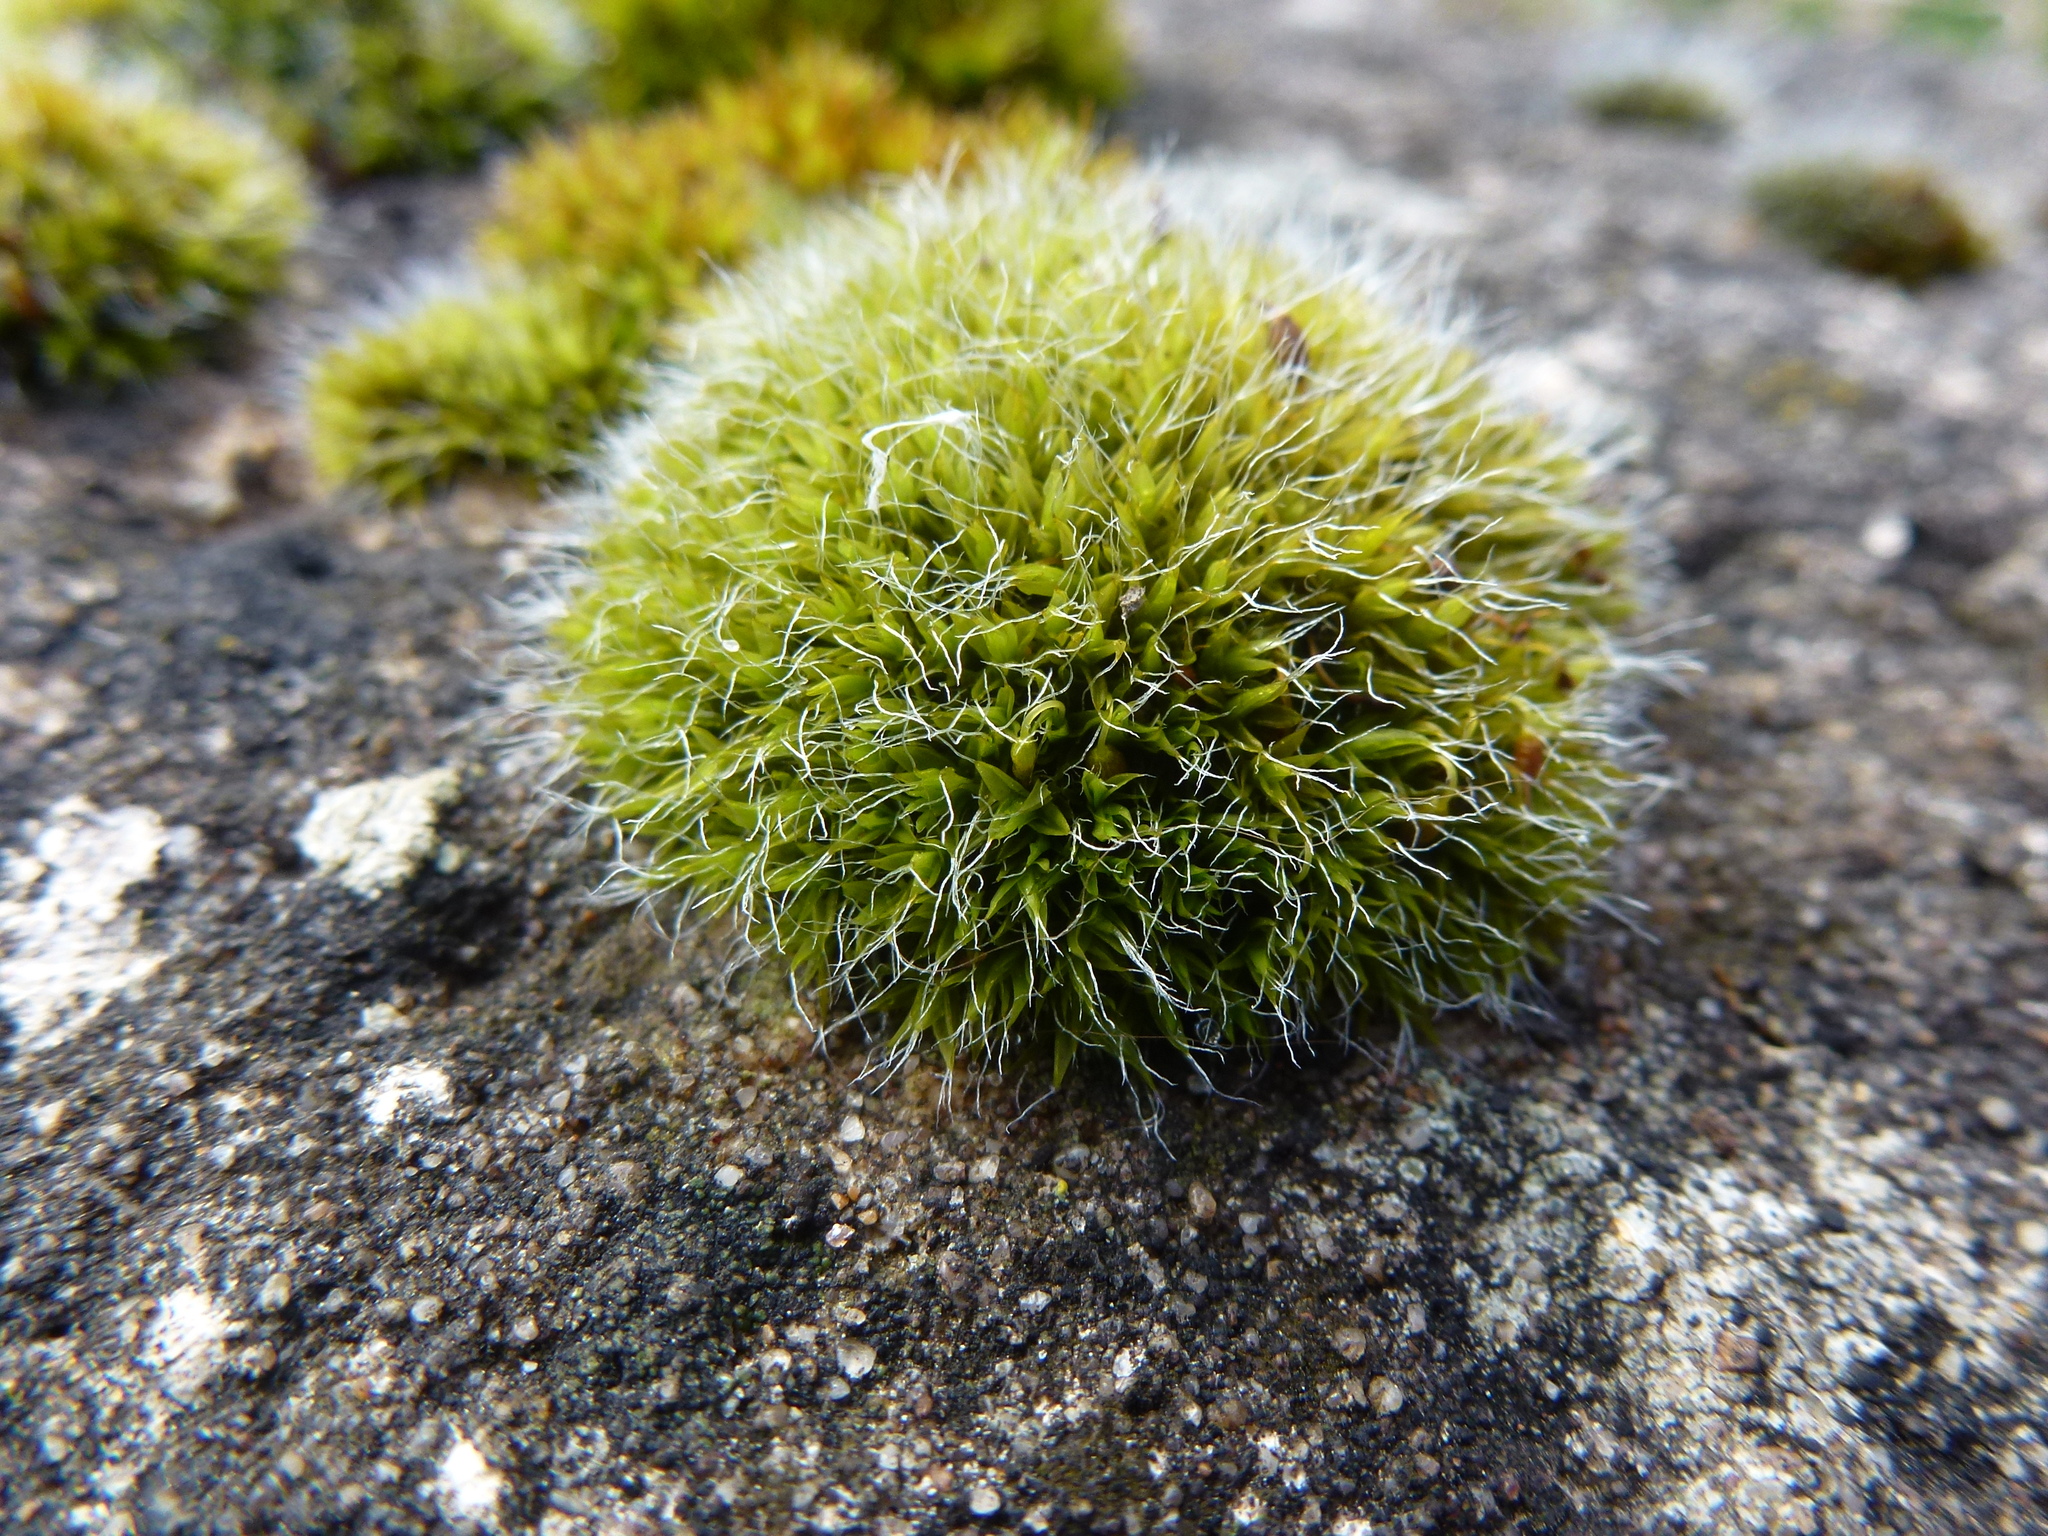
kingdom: Plantae
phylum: Bryophyta
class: Bryopsida
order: Grimmiales
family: Grimmiaceae
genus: Grimmia
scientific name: Grimmia pulvinata
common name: Grey-cushioned grimmia
